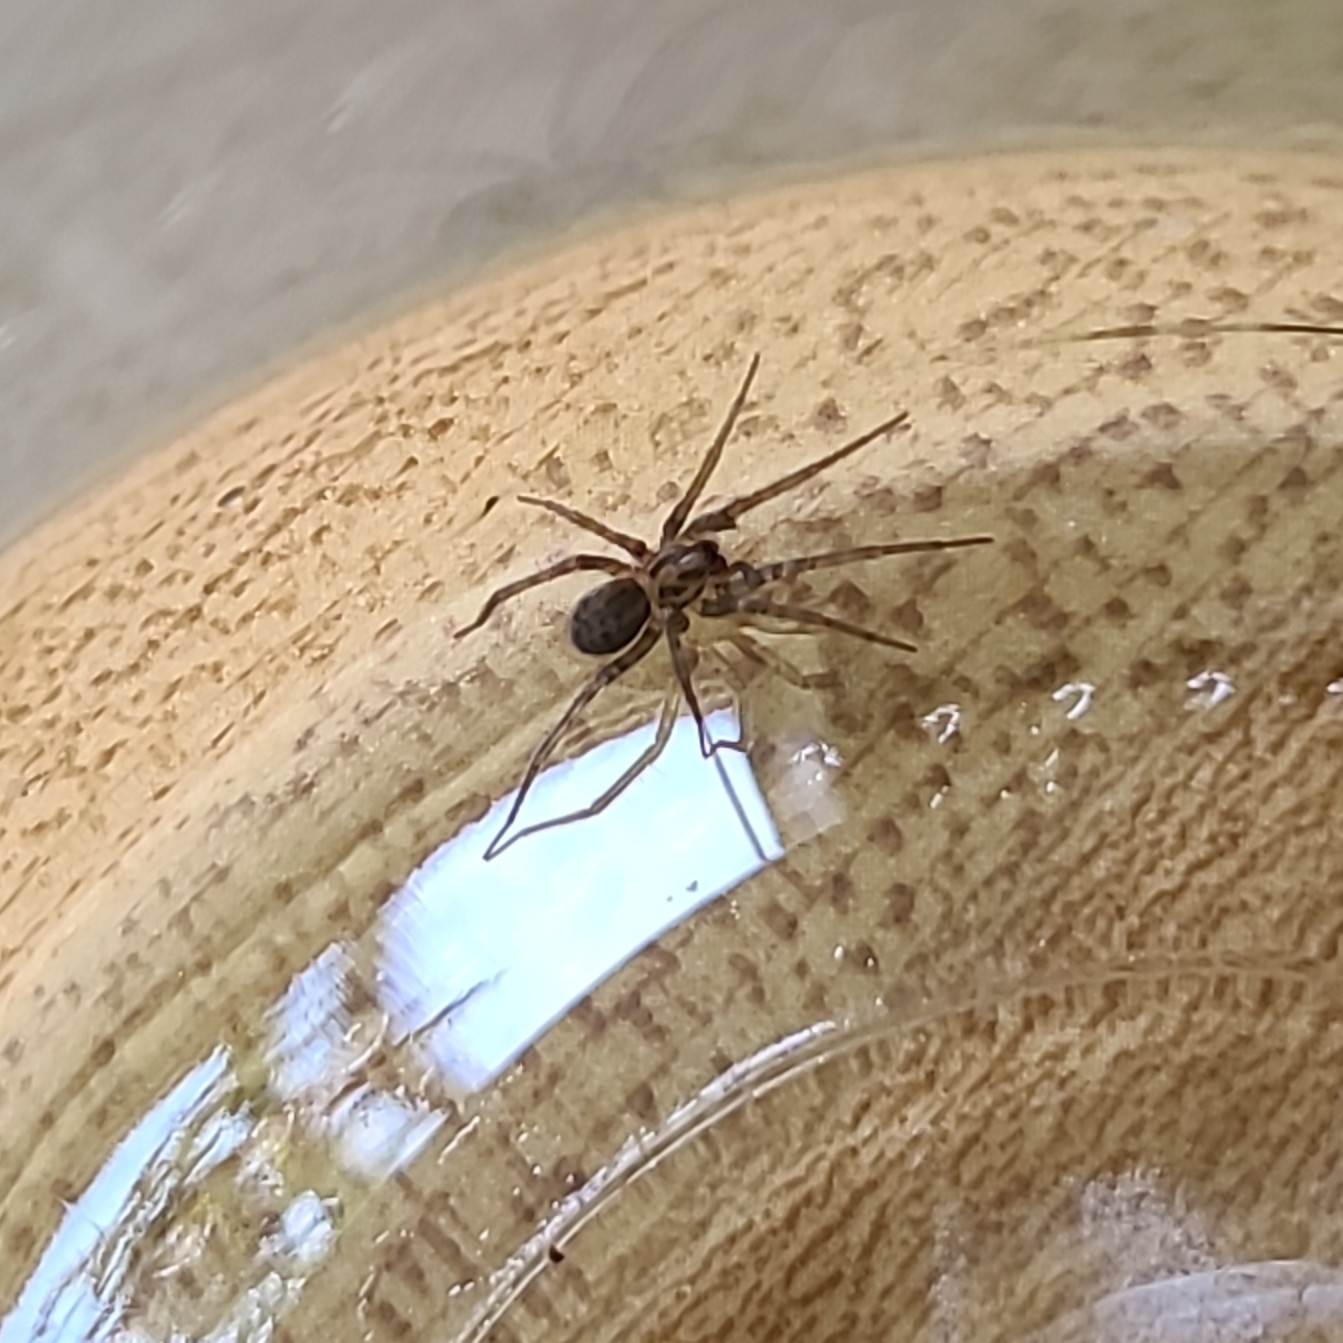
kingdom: Animalia
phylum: Arthropoda
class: Arachnida
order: Araneae
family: Agelenidae
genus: Tegenaria
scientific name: Tegenaria domestica
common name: Barn funnel weaver
